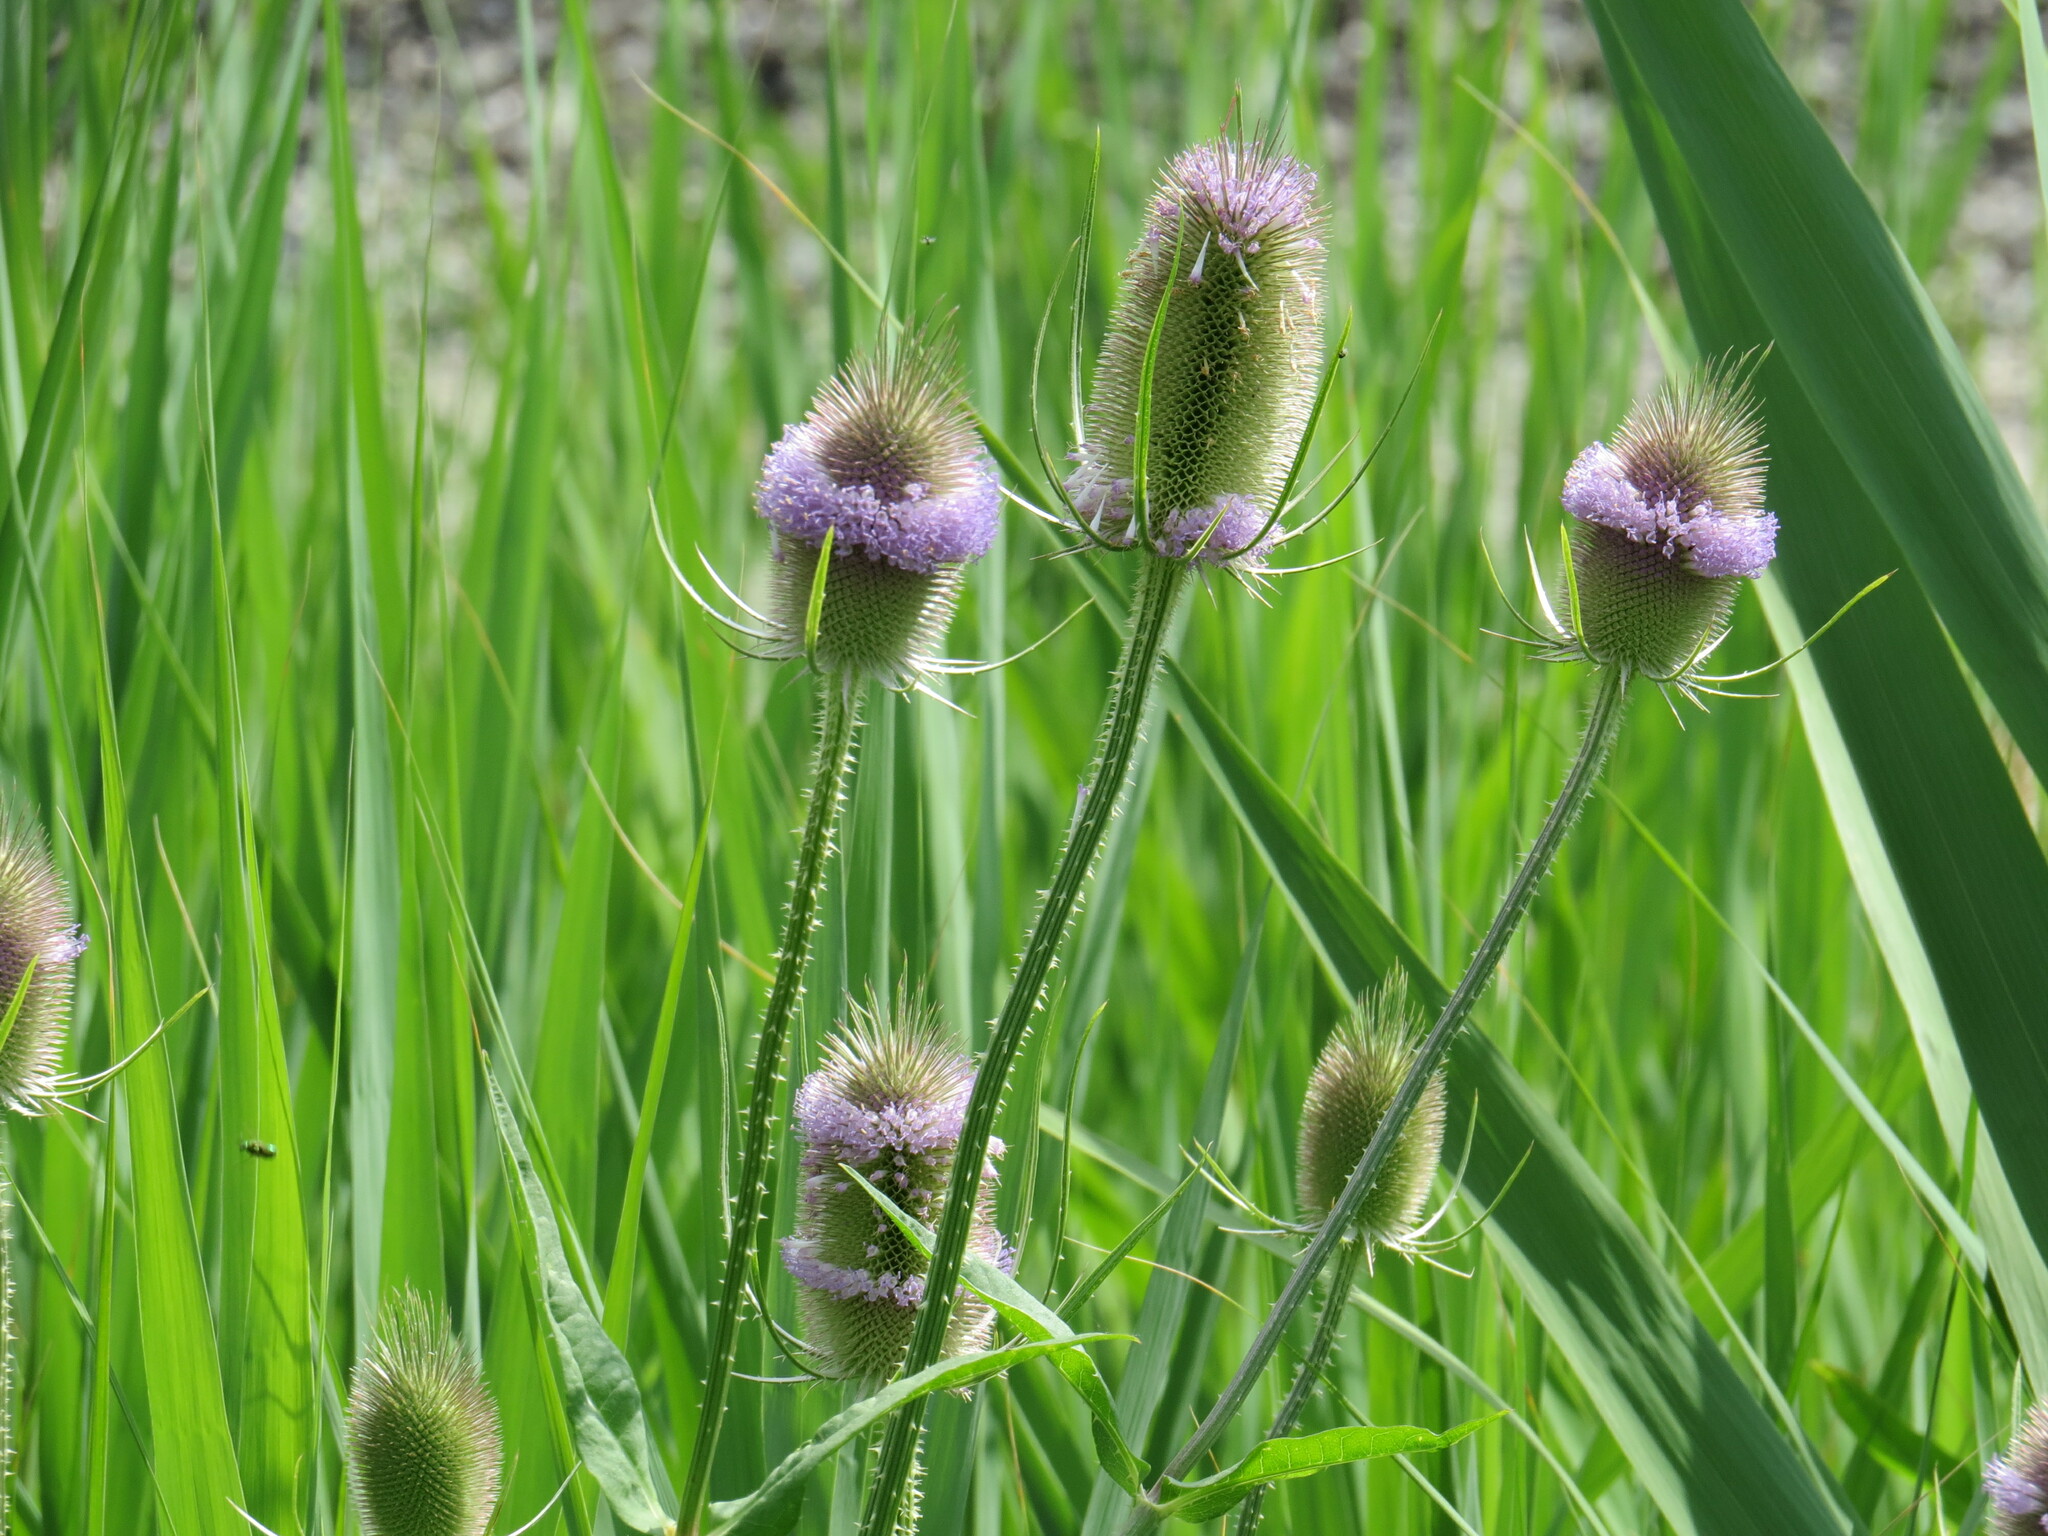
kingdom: Plantae
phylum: Tracheophyta
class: Magnoliopsida
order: Dipsacales
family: Caprifoliaceae
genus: Dipsacus
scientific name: Dipsacus fullonum
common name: Teasel
